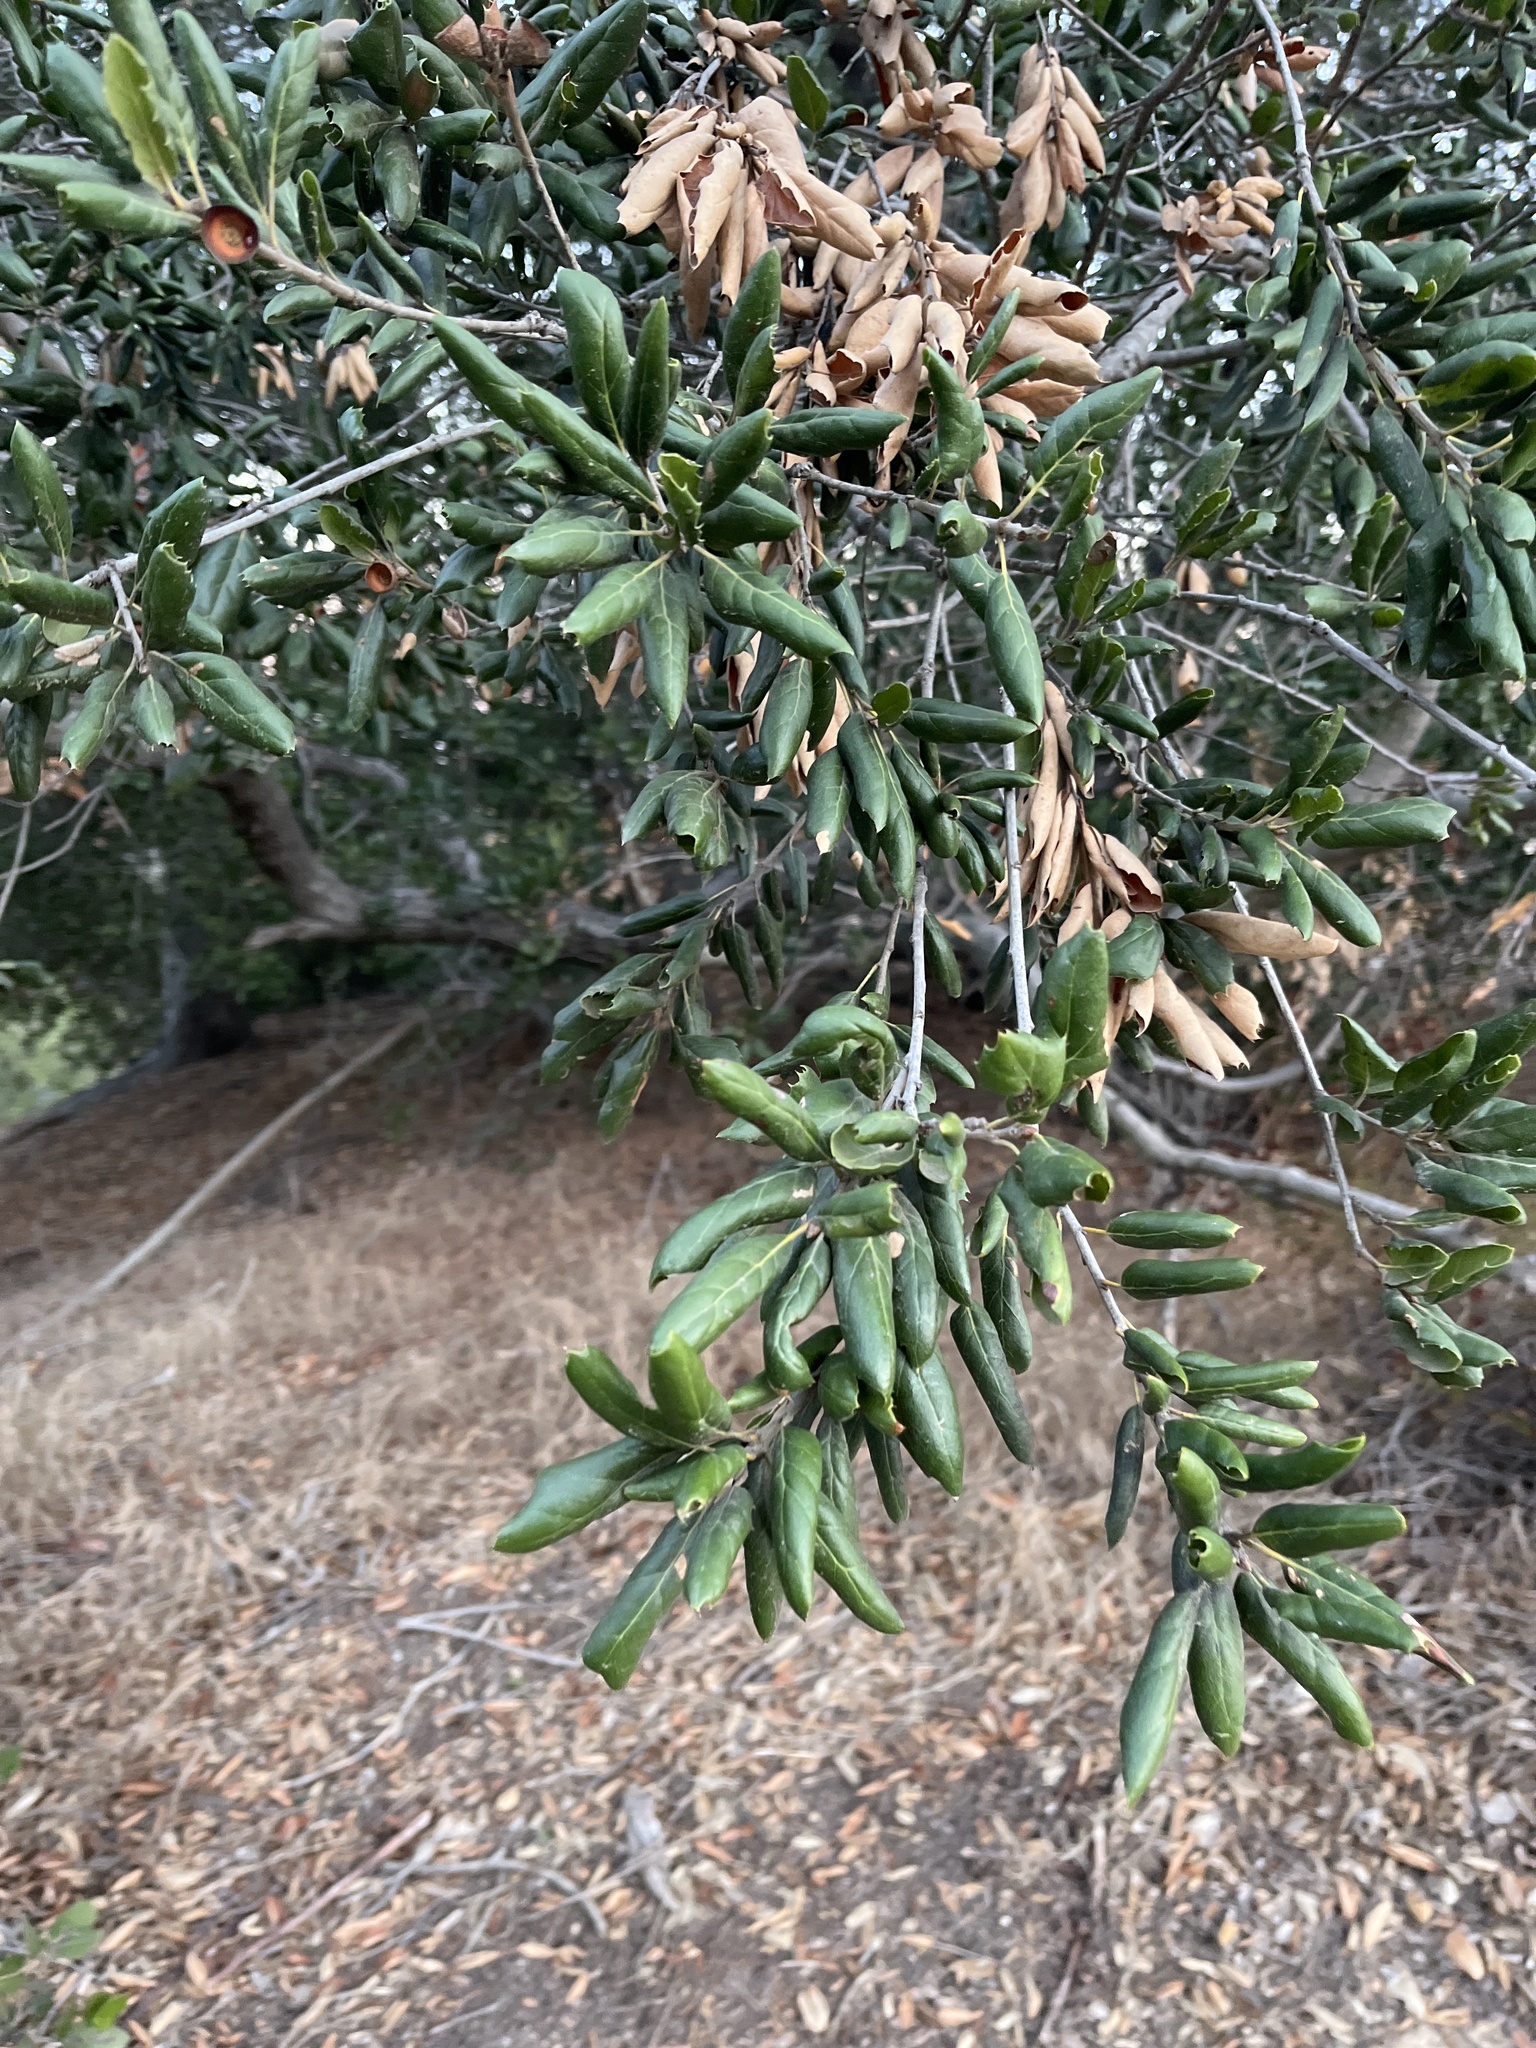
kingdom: Plantae
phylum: Tracheophyta
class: Magnoliopsida
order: Fagales
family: Fagaceae
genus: Quercus
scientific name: Quercus agrifolia
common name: California live oak
